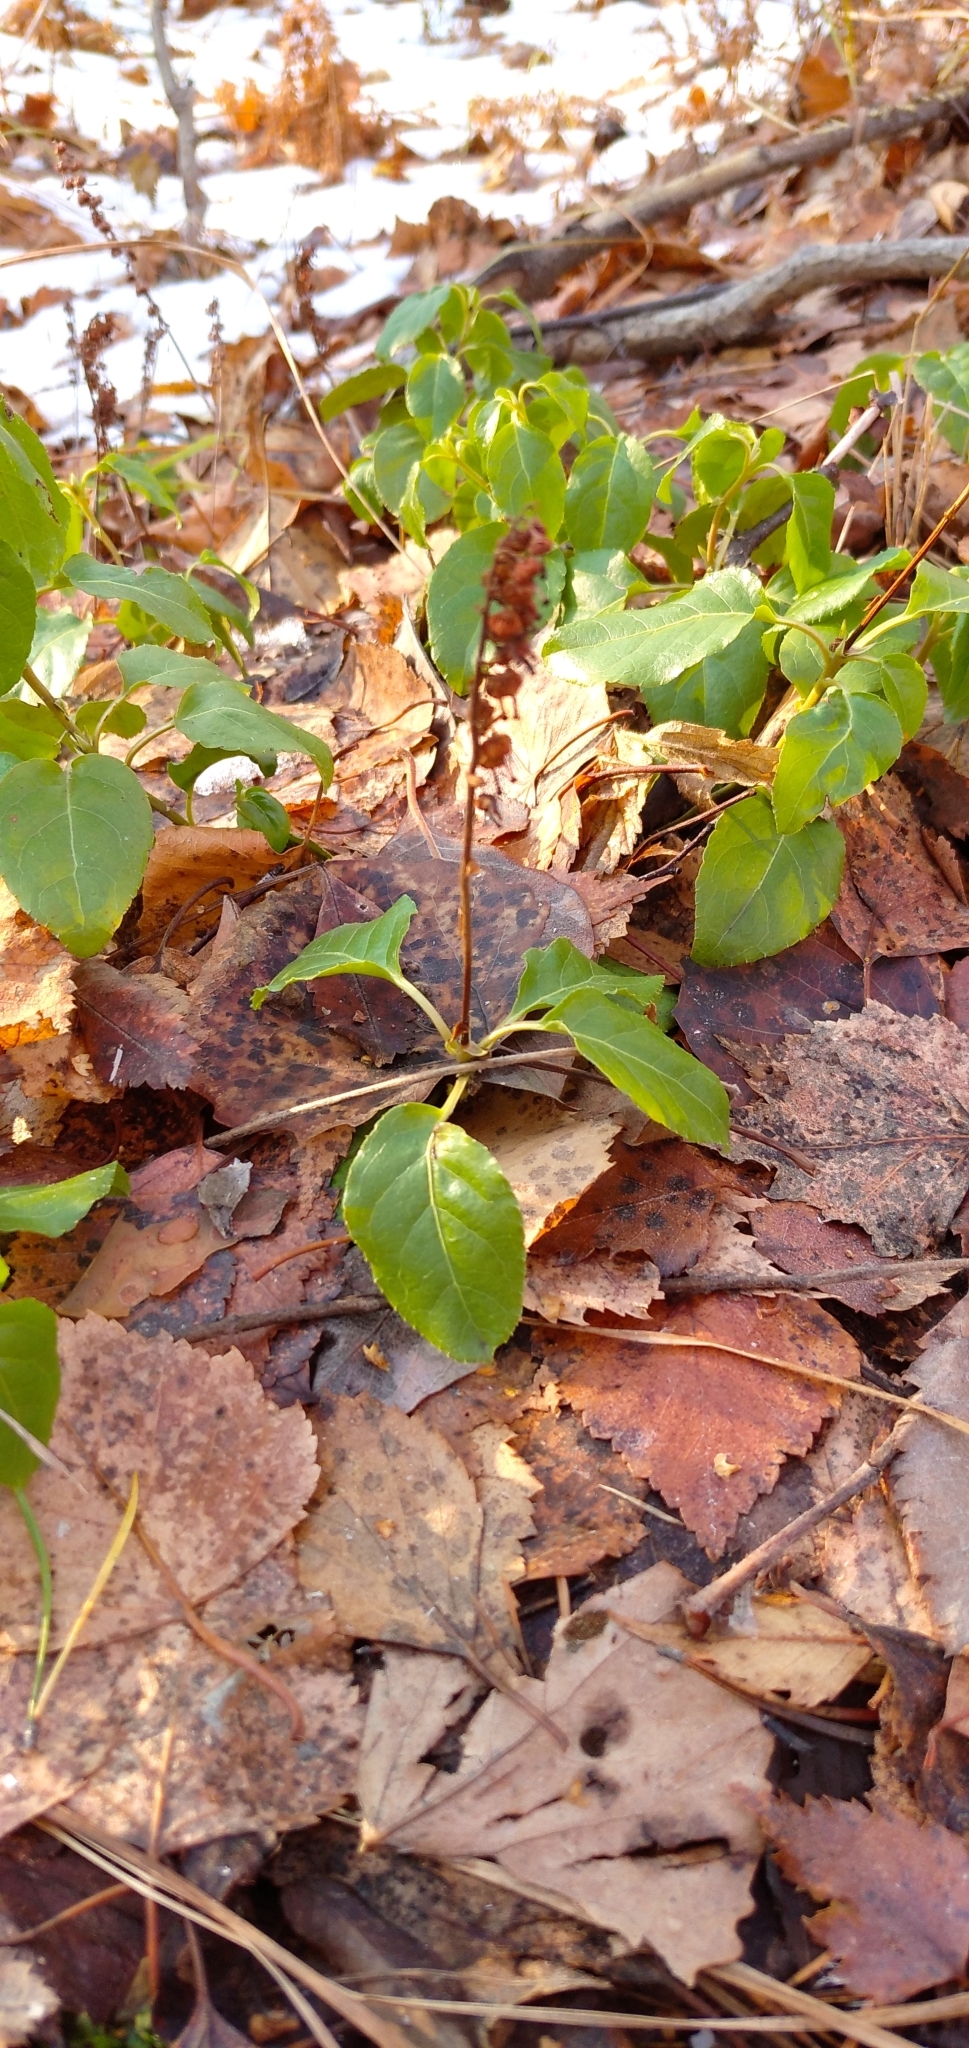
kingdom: Plantae
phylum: Tracheophyta
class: Magnoliopsida
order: Ericales
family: Ericaceae
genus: Orthilia
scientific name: Orthilia secunda
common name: One-sided orthilia
